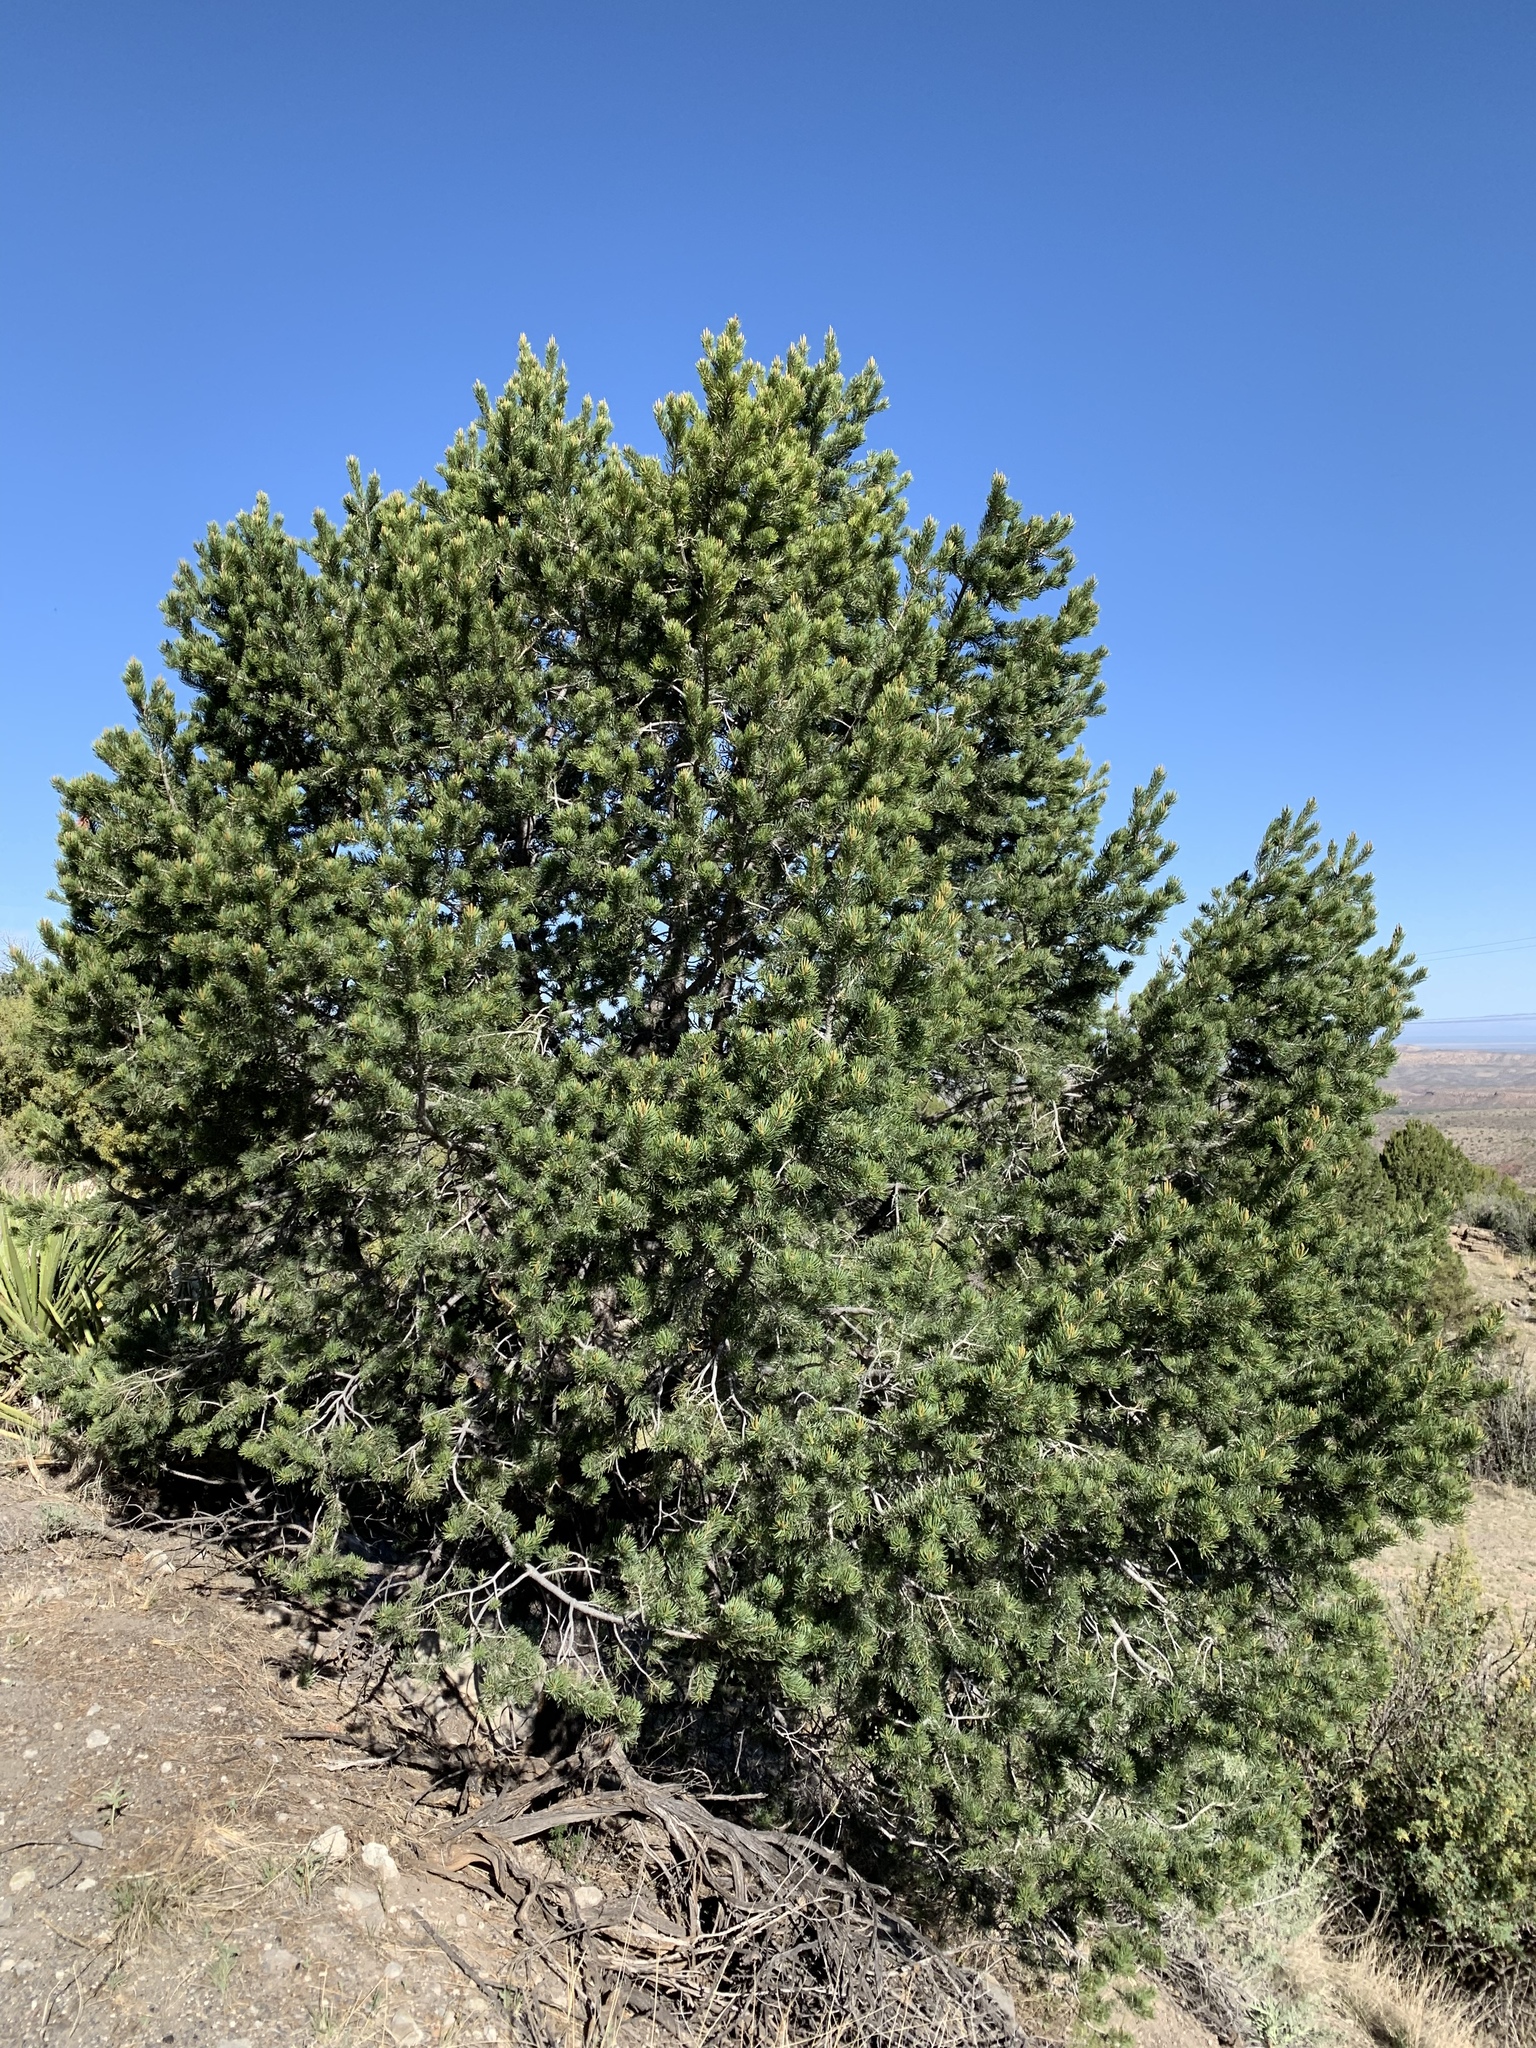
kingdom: Plantae
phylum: Tracheophyta
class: Pinopsida
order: Pinales
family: Pinaceae
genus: Pinus
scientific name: Pinus edulis
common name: Colorado pinyon
